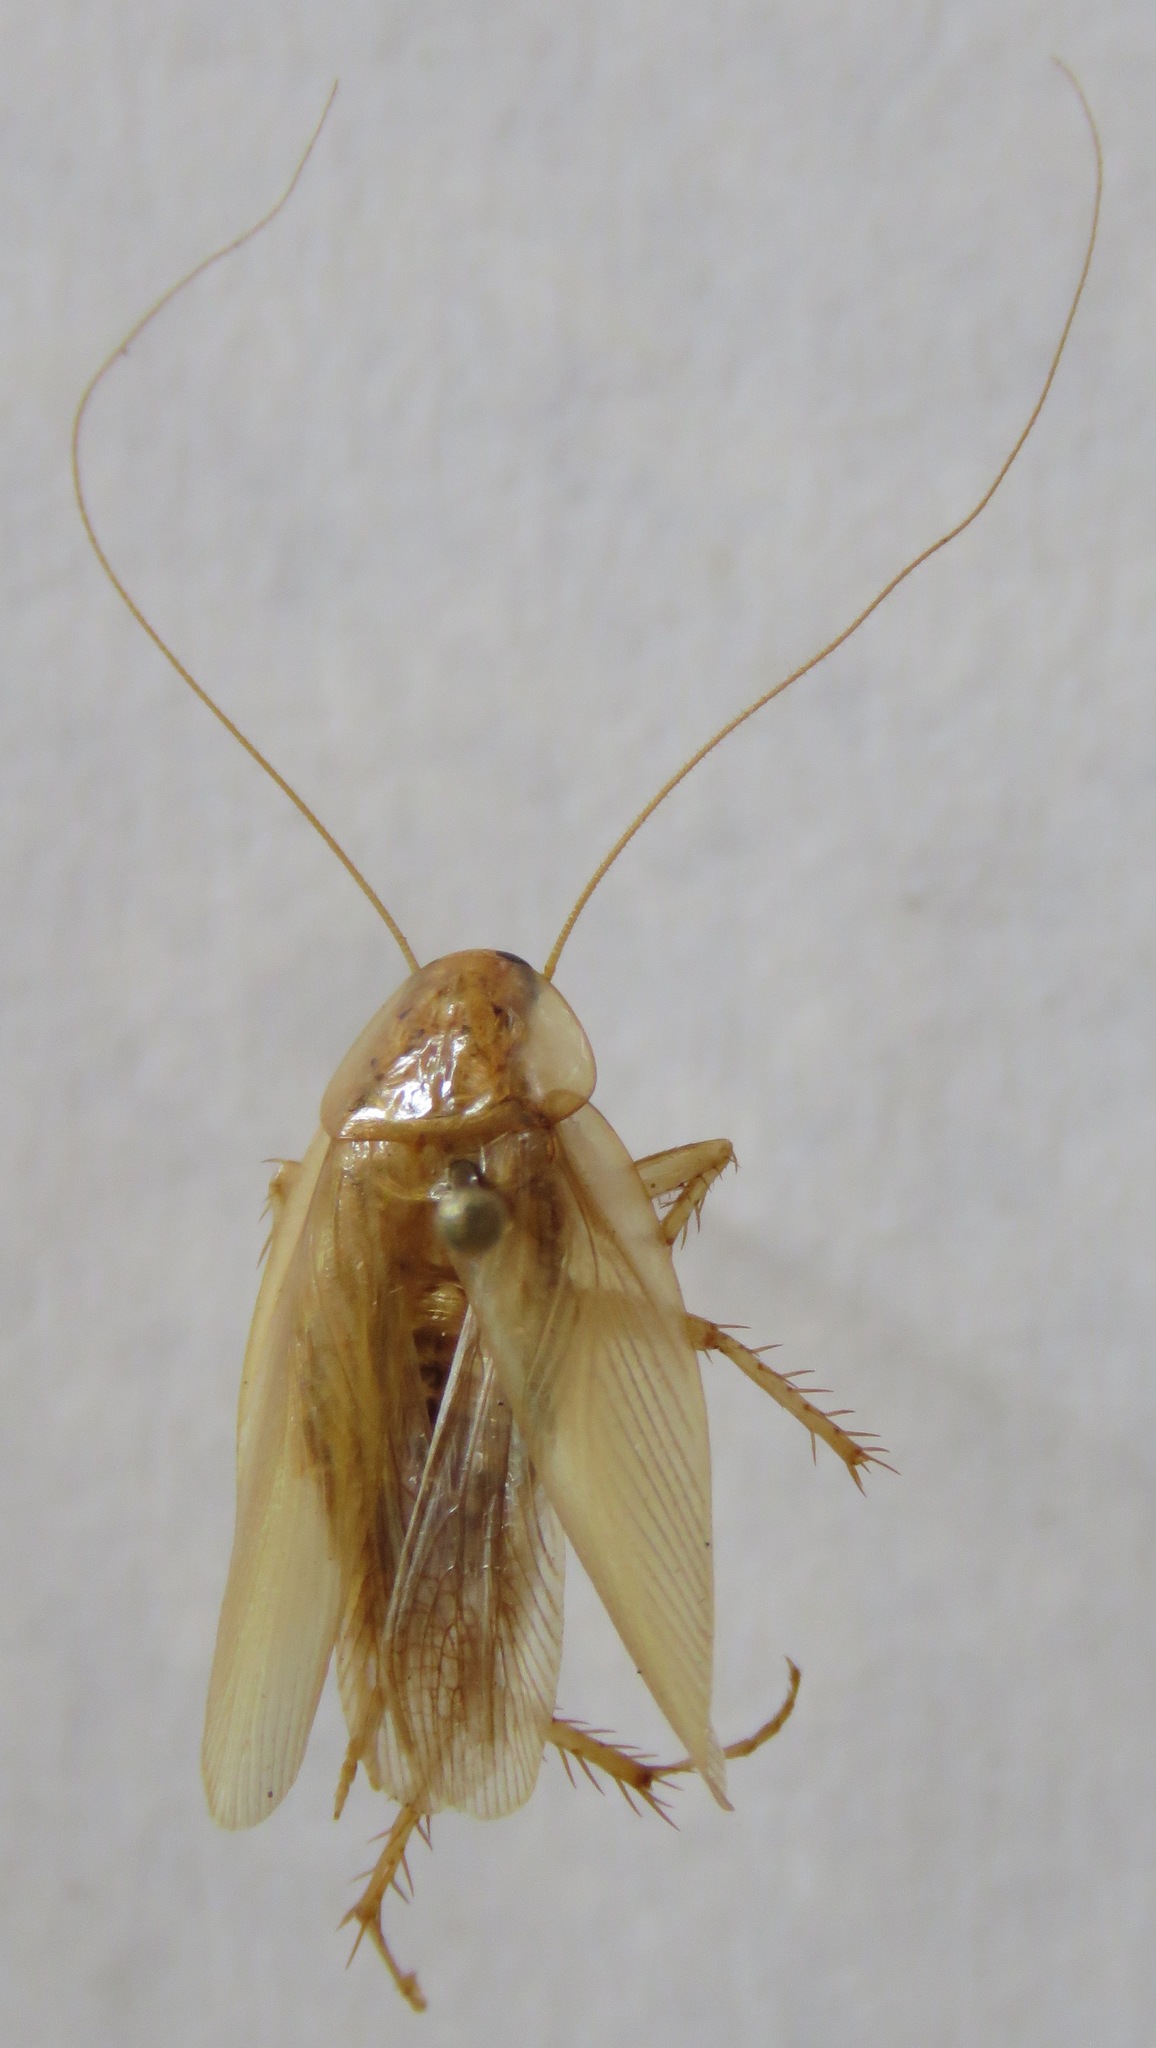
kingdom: Animalia
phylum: Arthropoda
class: Insecta
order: Blattodea
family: Ectobiidae
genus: Nahublattella
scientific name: Nahublattella fraterna
